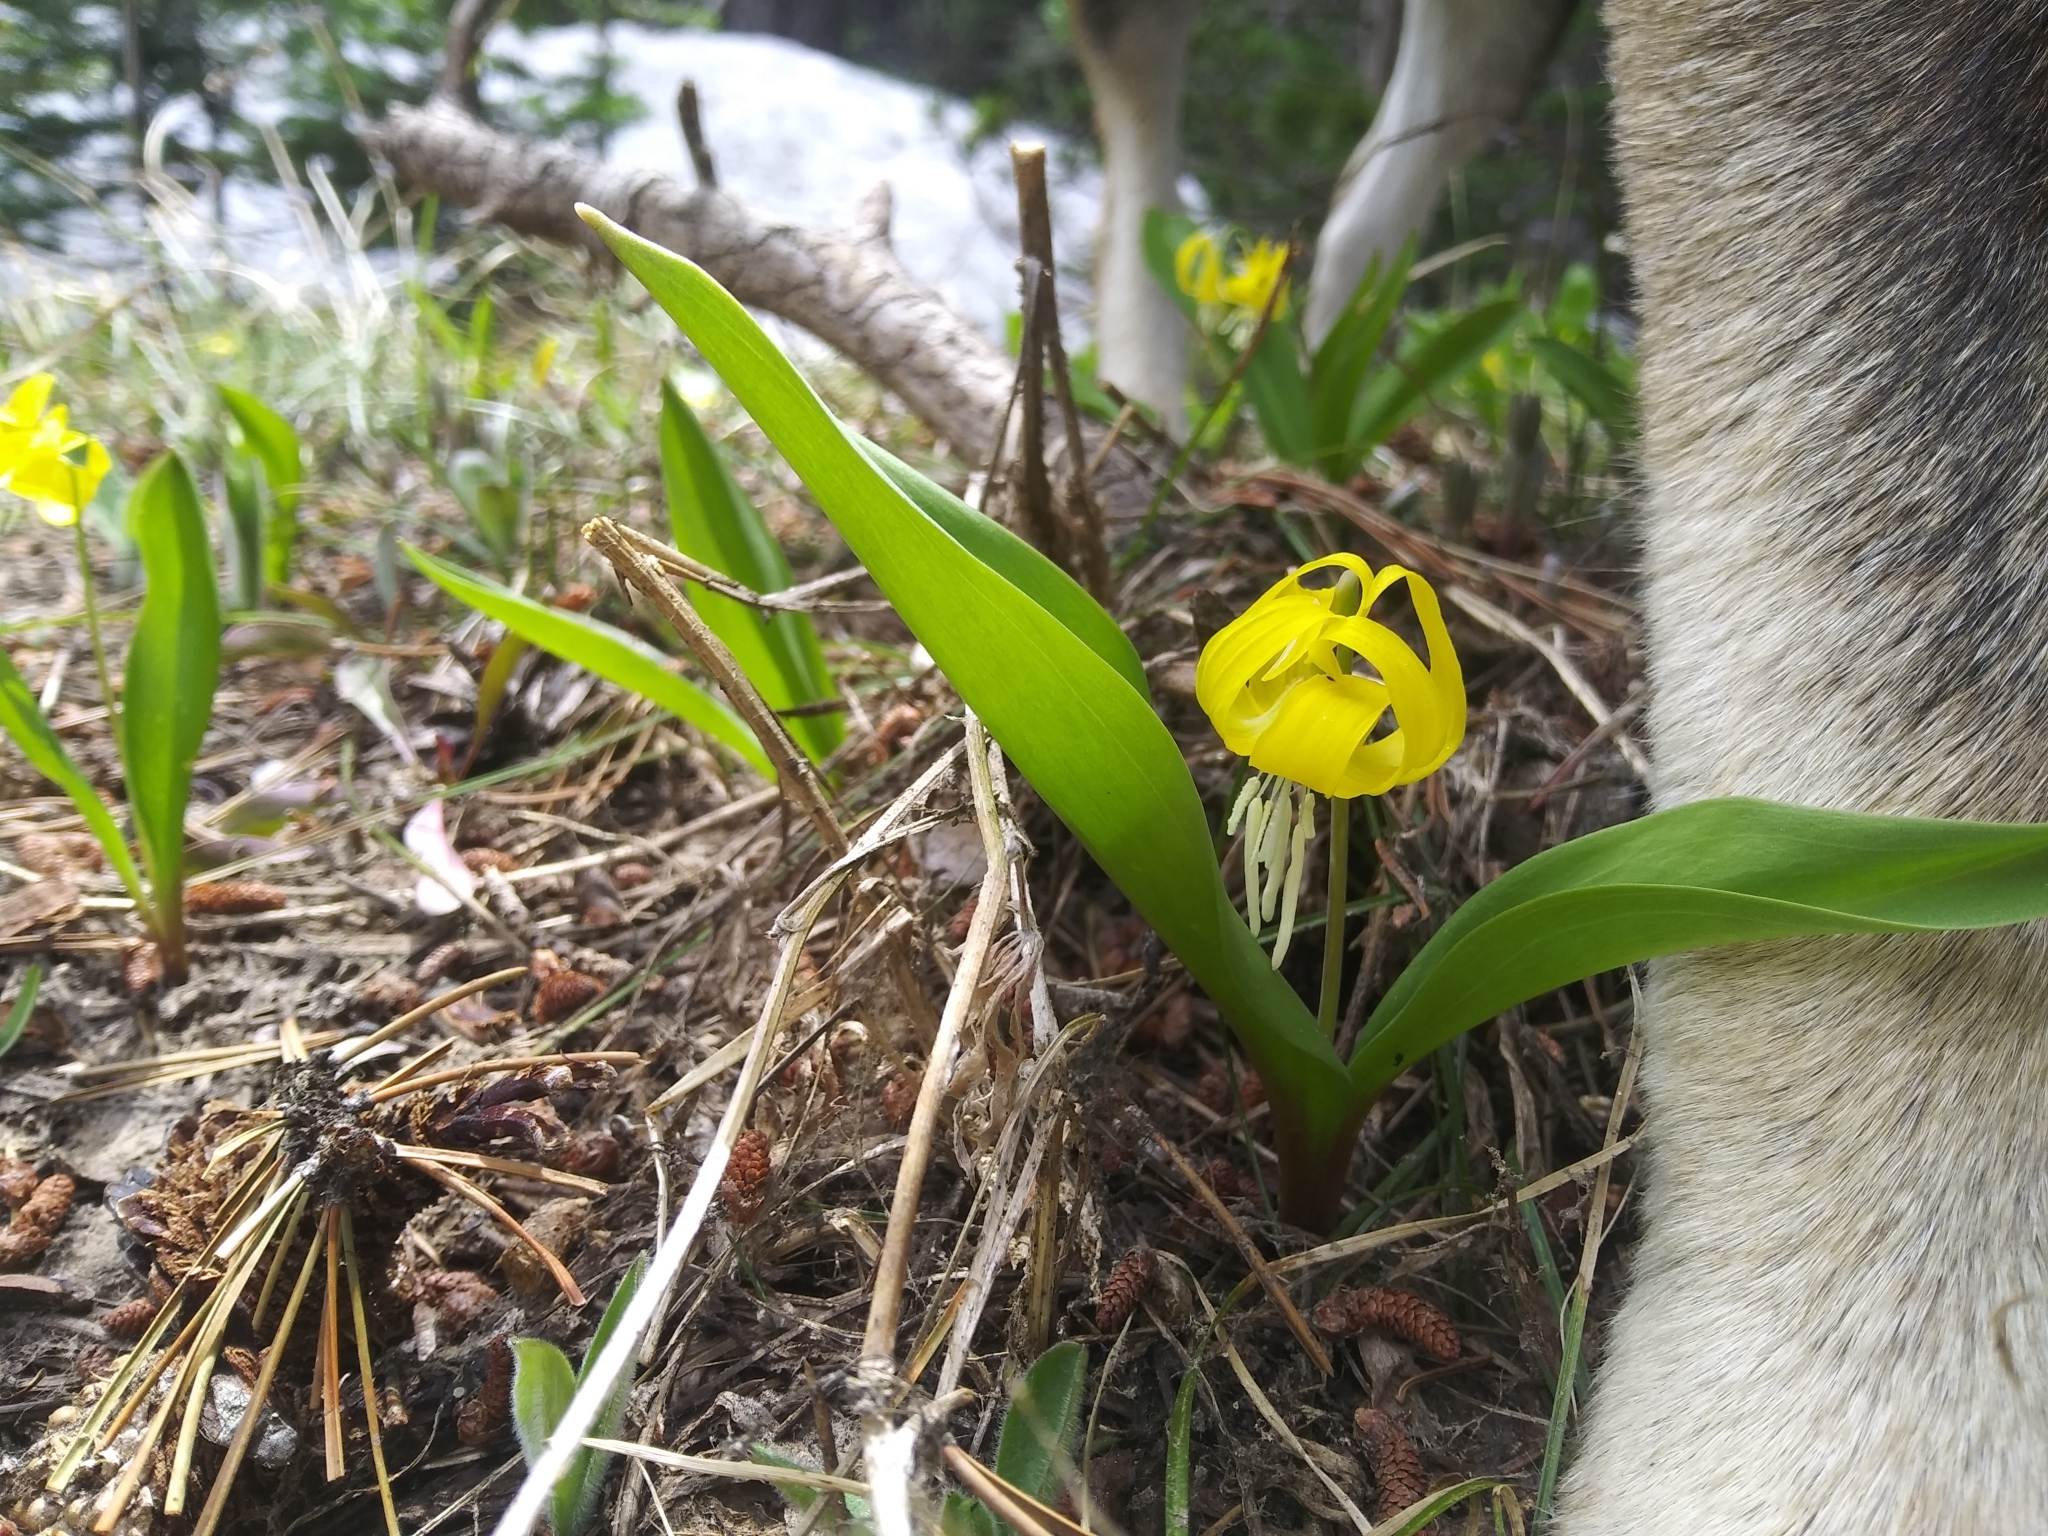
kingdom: Plantae
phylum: Tracheophyta
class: Liliopsida
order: Liliales
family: Liliaceae
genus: Erythronium
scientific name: Erythronium grandiflorum
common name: Avalanche-lily
